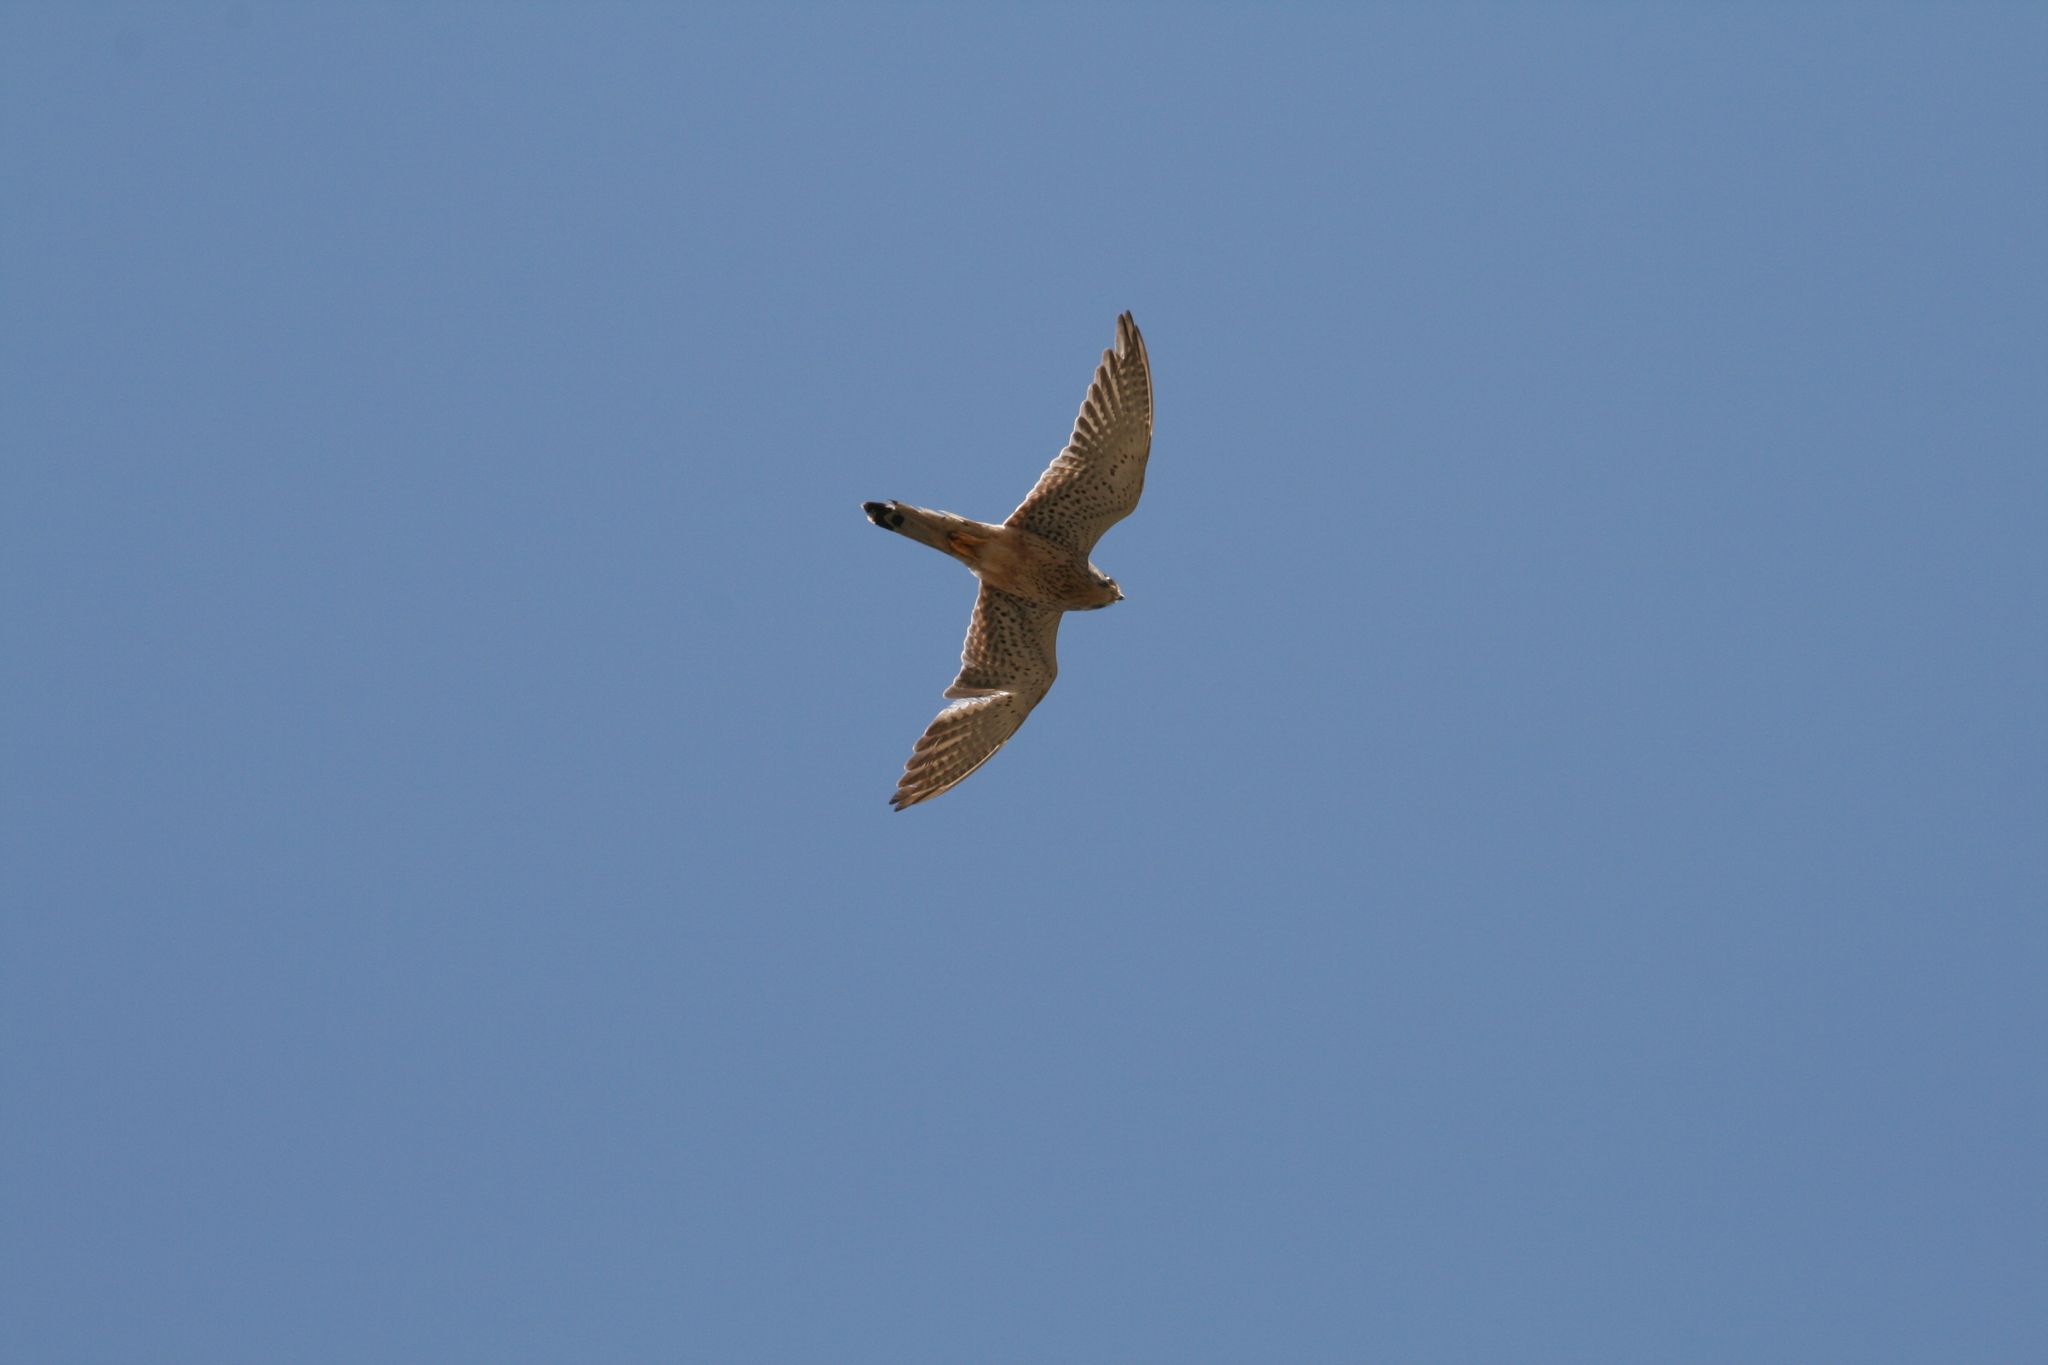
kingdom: Animalia
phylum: Chordata
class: Aves
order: Falconiformes
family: Falconidae
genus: Falco
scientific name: Falco tinnunculus
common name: Common kestrel
